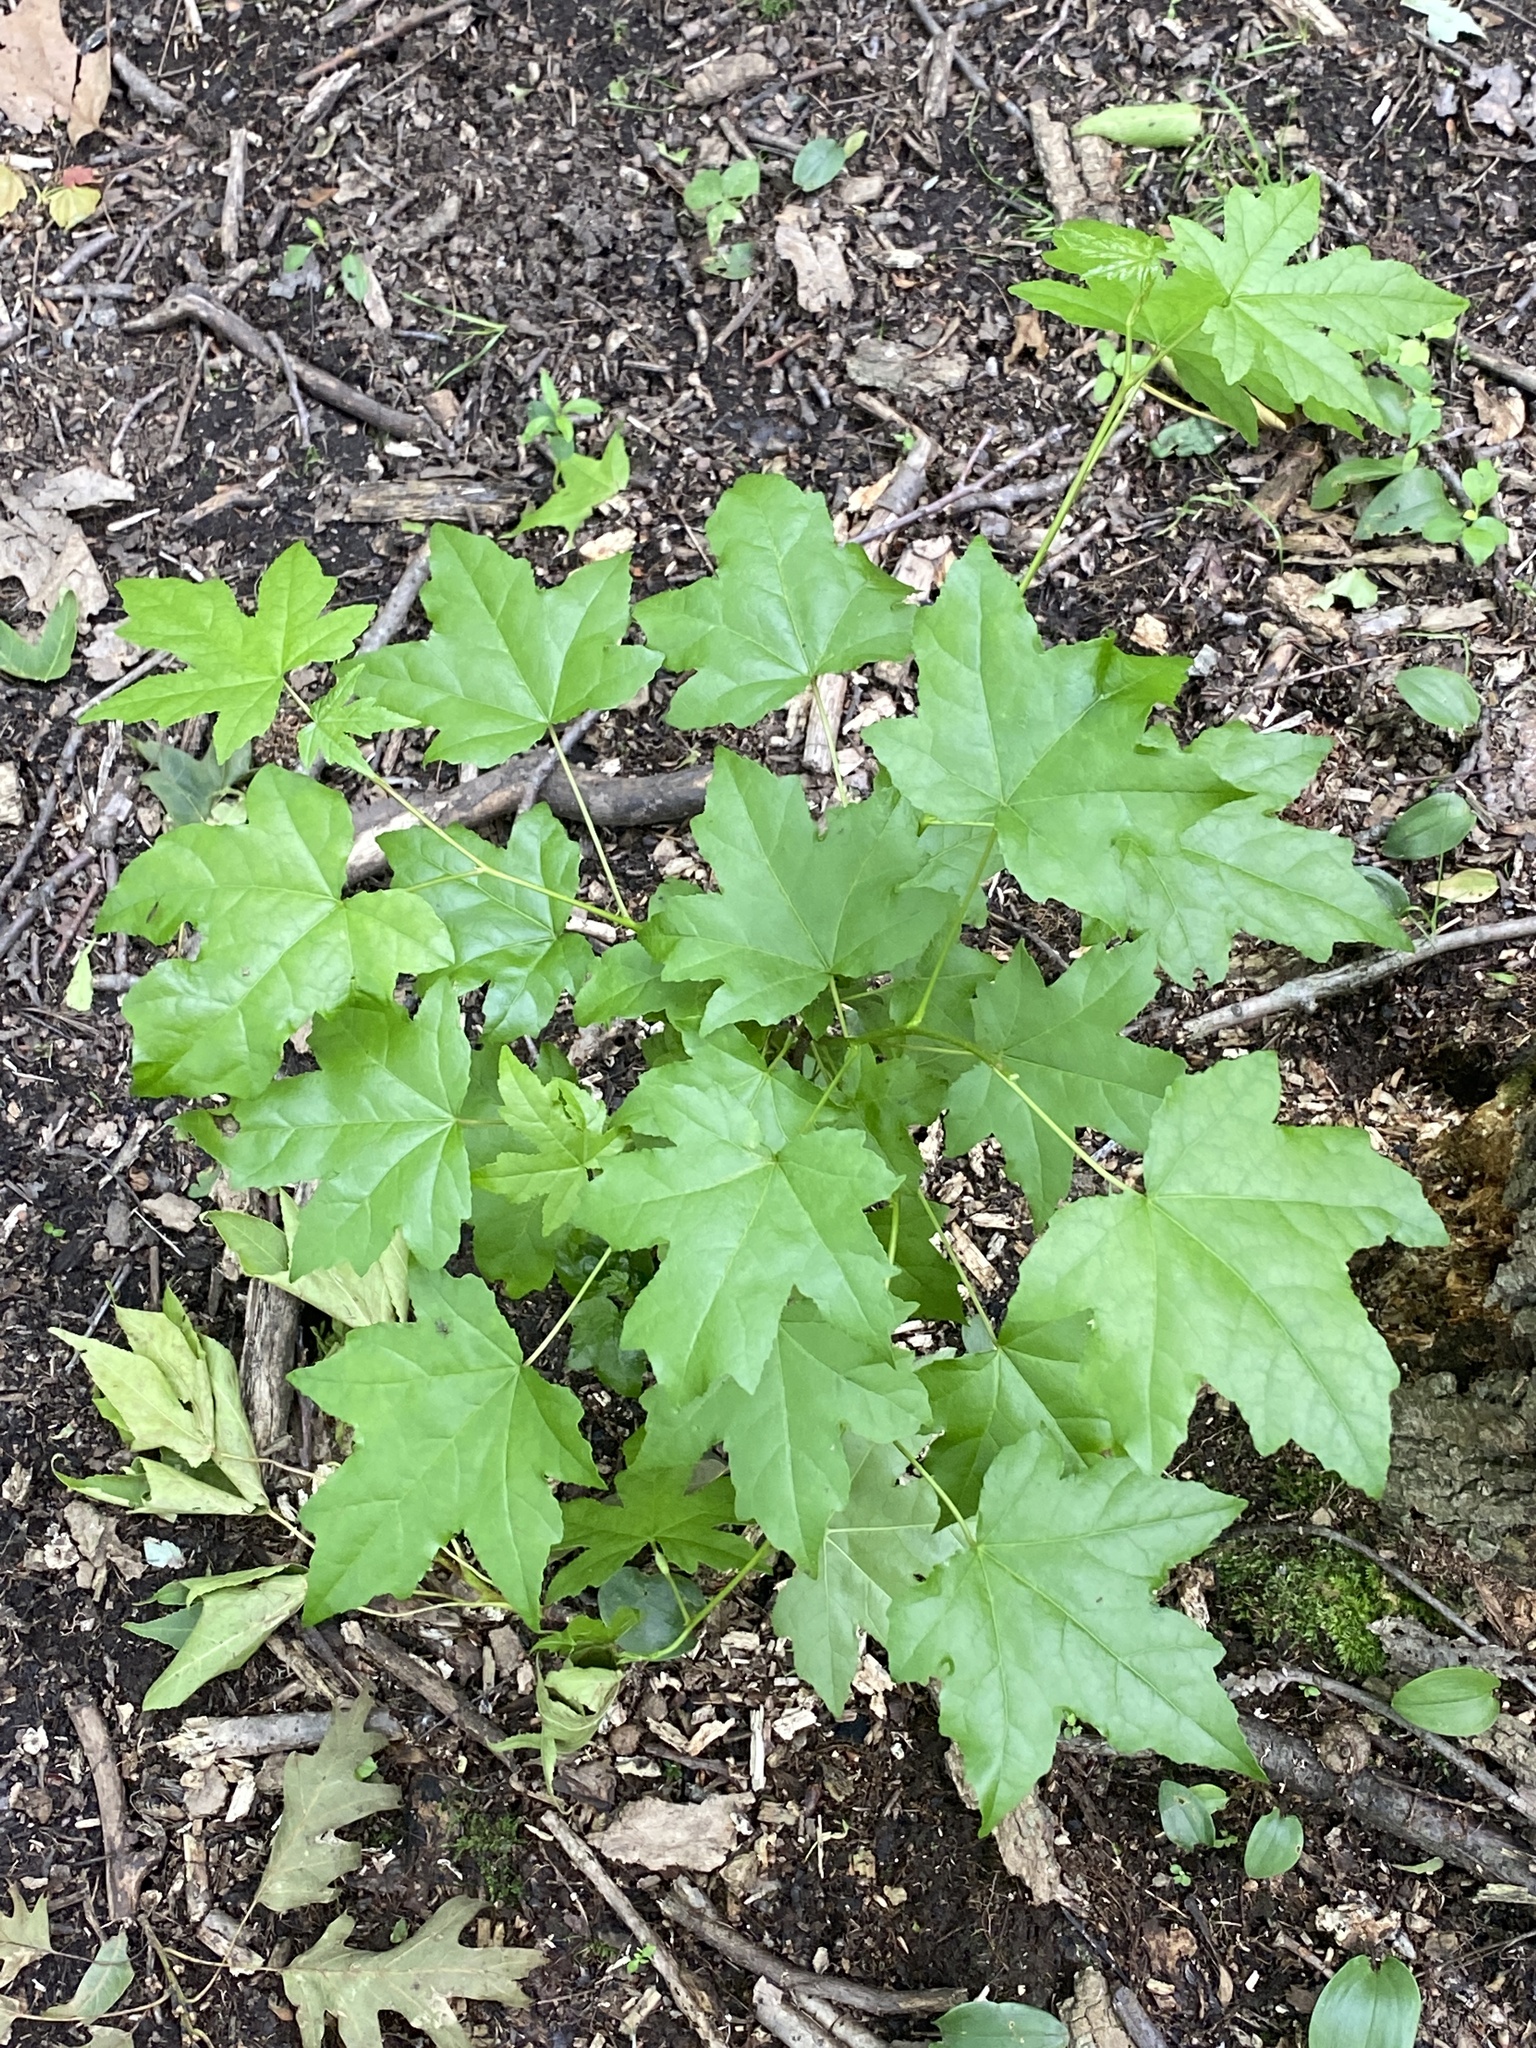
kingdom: Plantae
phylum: Tracheophyta
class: Magnoliopsida
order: Saxifragales
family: Altingiaceae
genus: Liquidambar
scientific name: Liquidambar styraciflua
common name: Sweet gum
